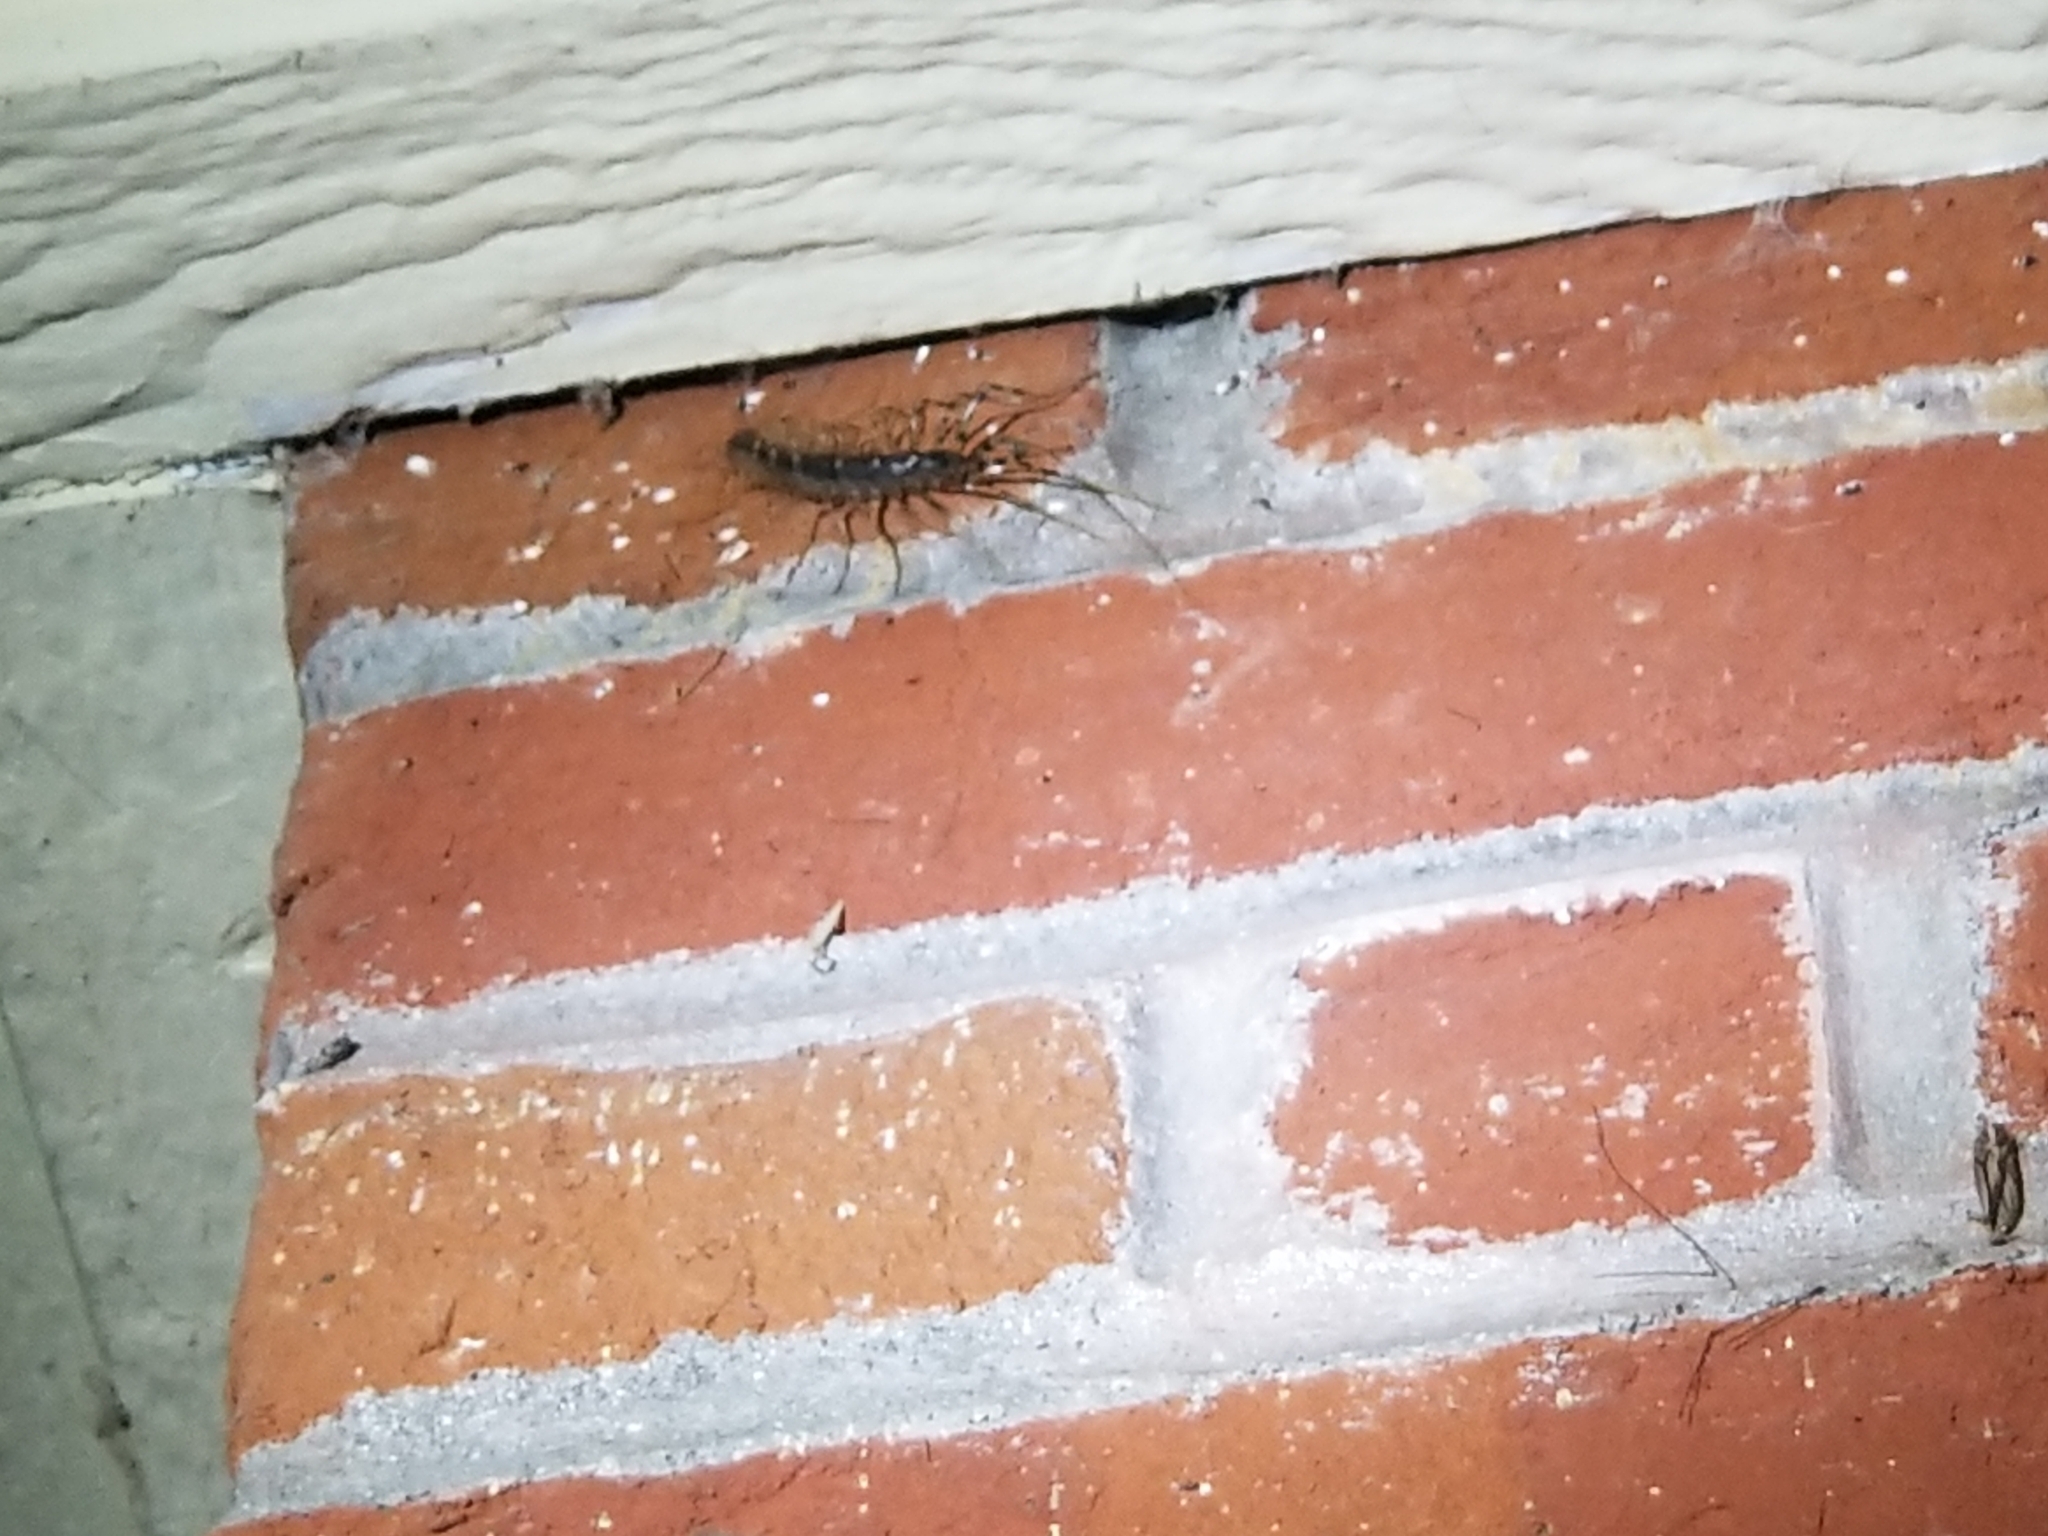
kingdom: Animalia
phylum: Arthropoda
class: Chilopoda
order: Scutigeromorpha
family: Scutigeridae
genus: Thereuonema
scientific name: Thereuonema tuberculata
